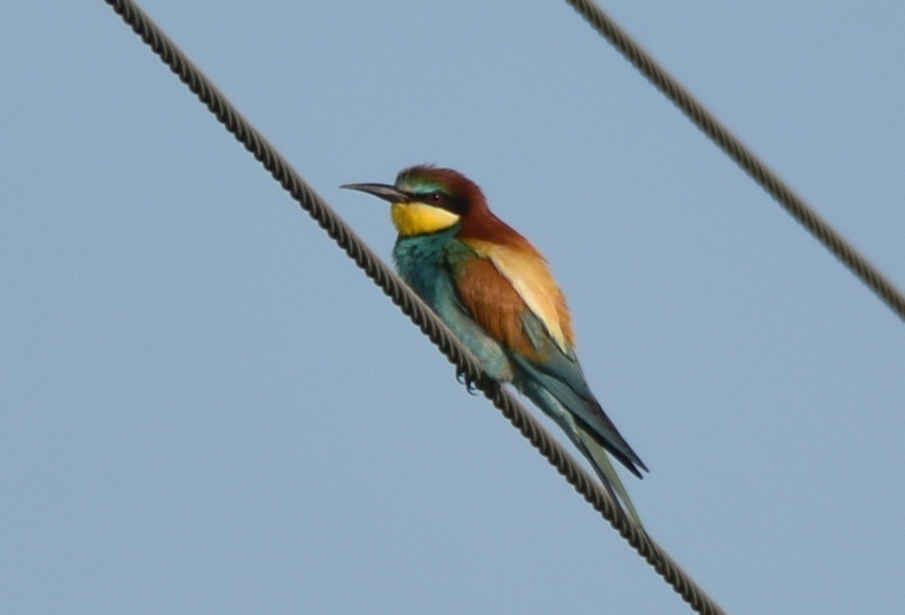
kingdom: Animalia
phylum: Chordata
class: Aves
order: Coraciiformes
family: Meropidae
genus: Merops
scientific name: Merops apiaster
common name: European bee-eater
